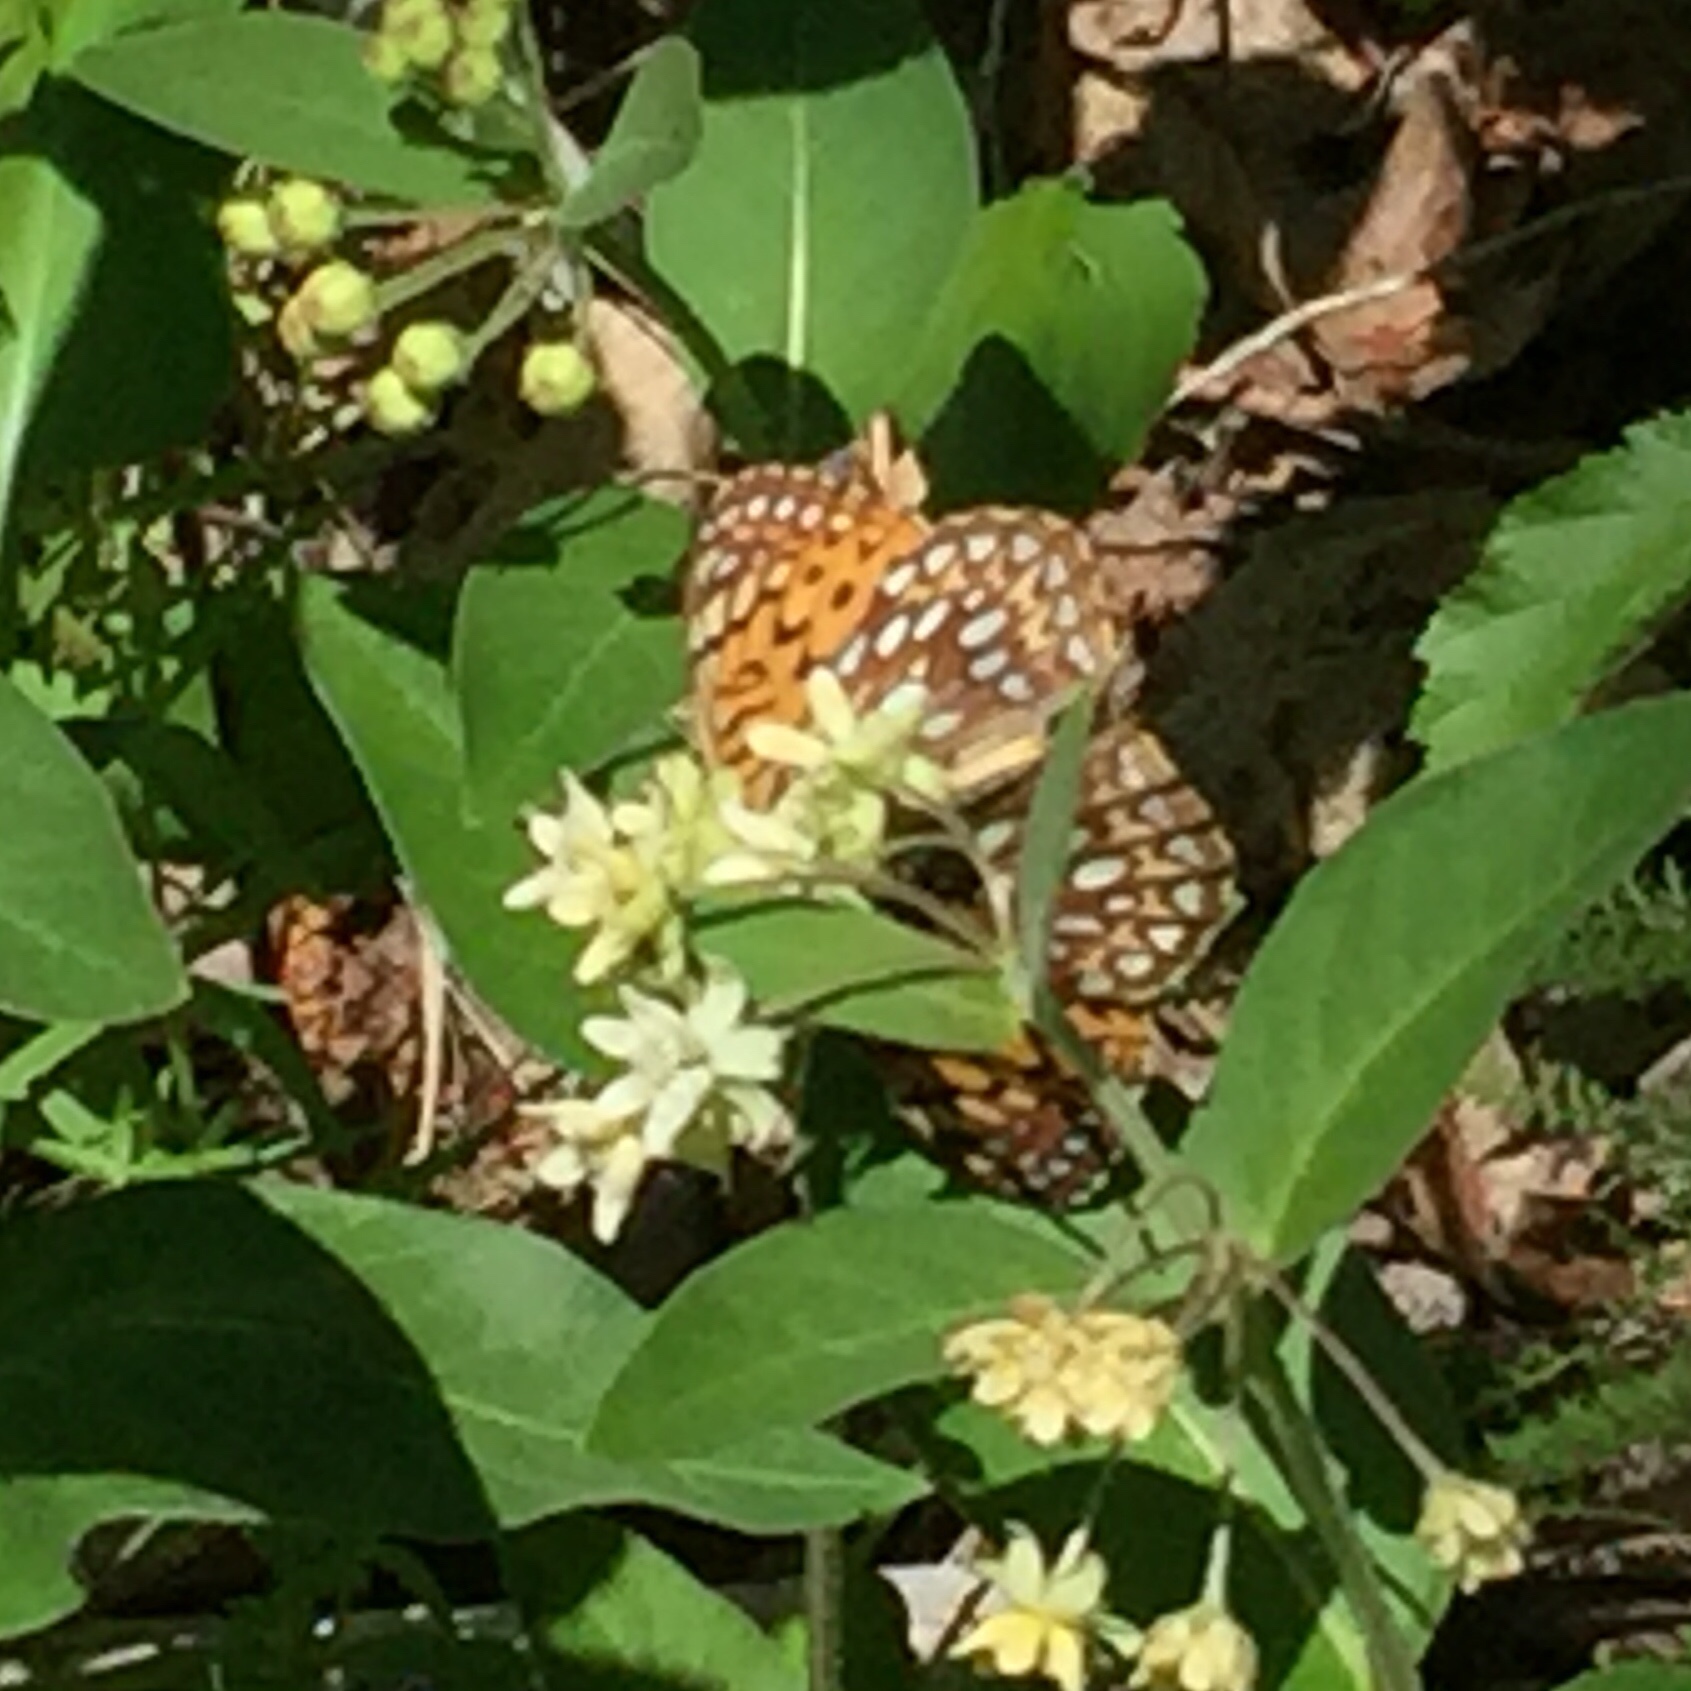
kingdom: Animalia
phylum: Arthropoda
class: Insecta
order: Lepidoptera
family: Nymphalidae
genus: Speyeria
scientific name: Speyeria aphrodite
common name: Aphrodite friitllary
